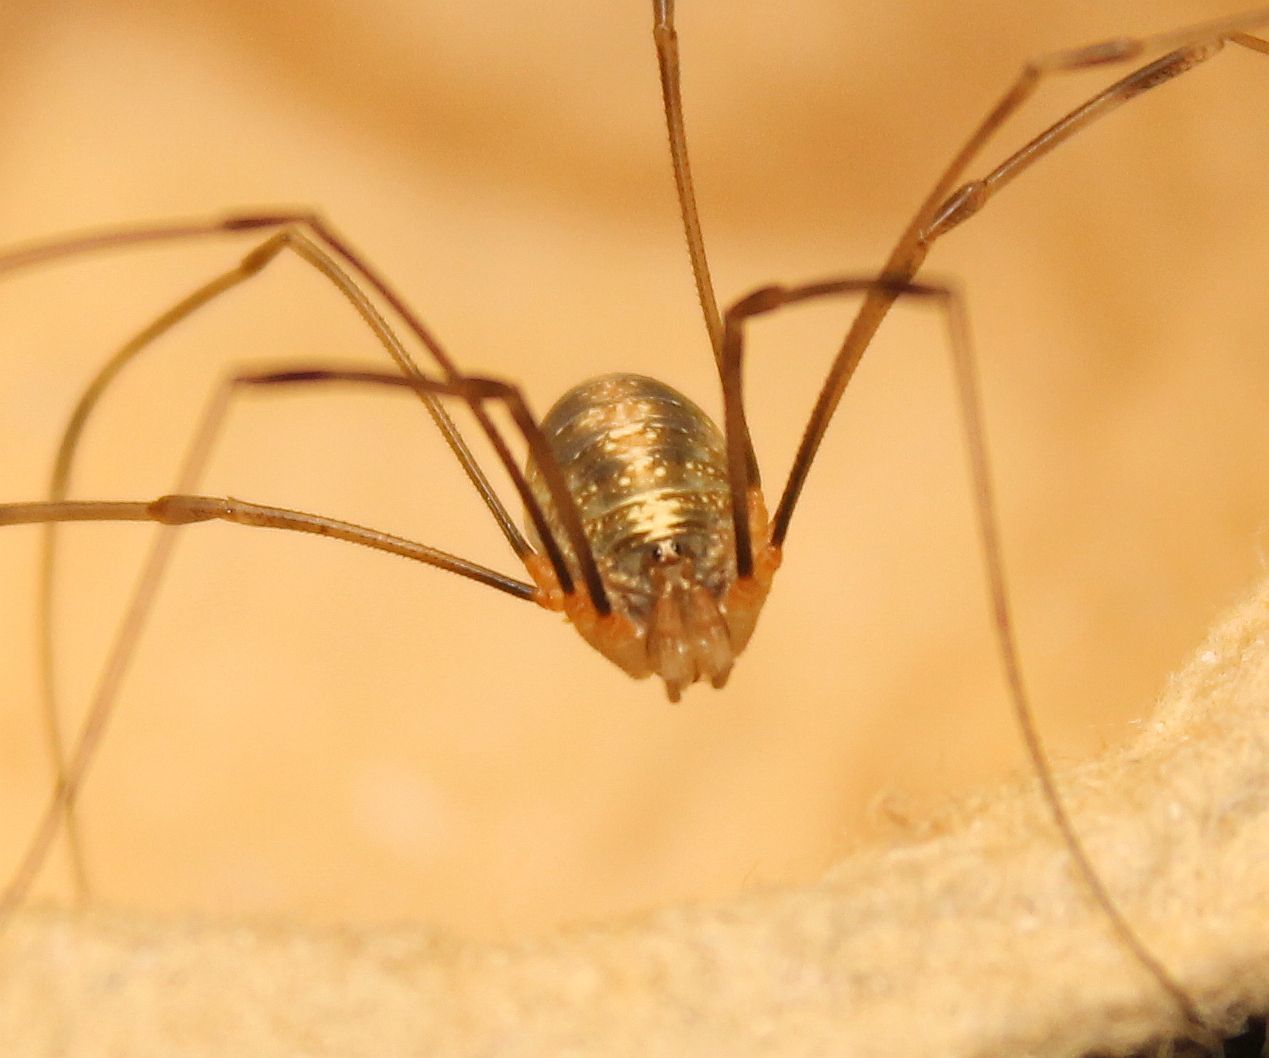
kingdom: Animalia
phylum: Arthropoda
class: Arachnida
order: Opiliones
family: Phalangiidae
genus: Opilio
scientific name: Opilio canestrinii
